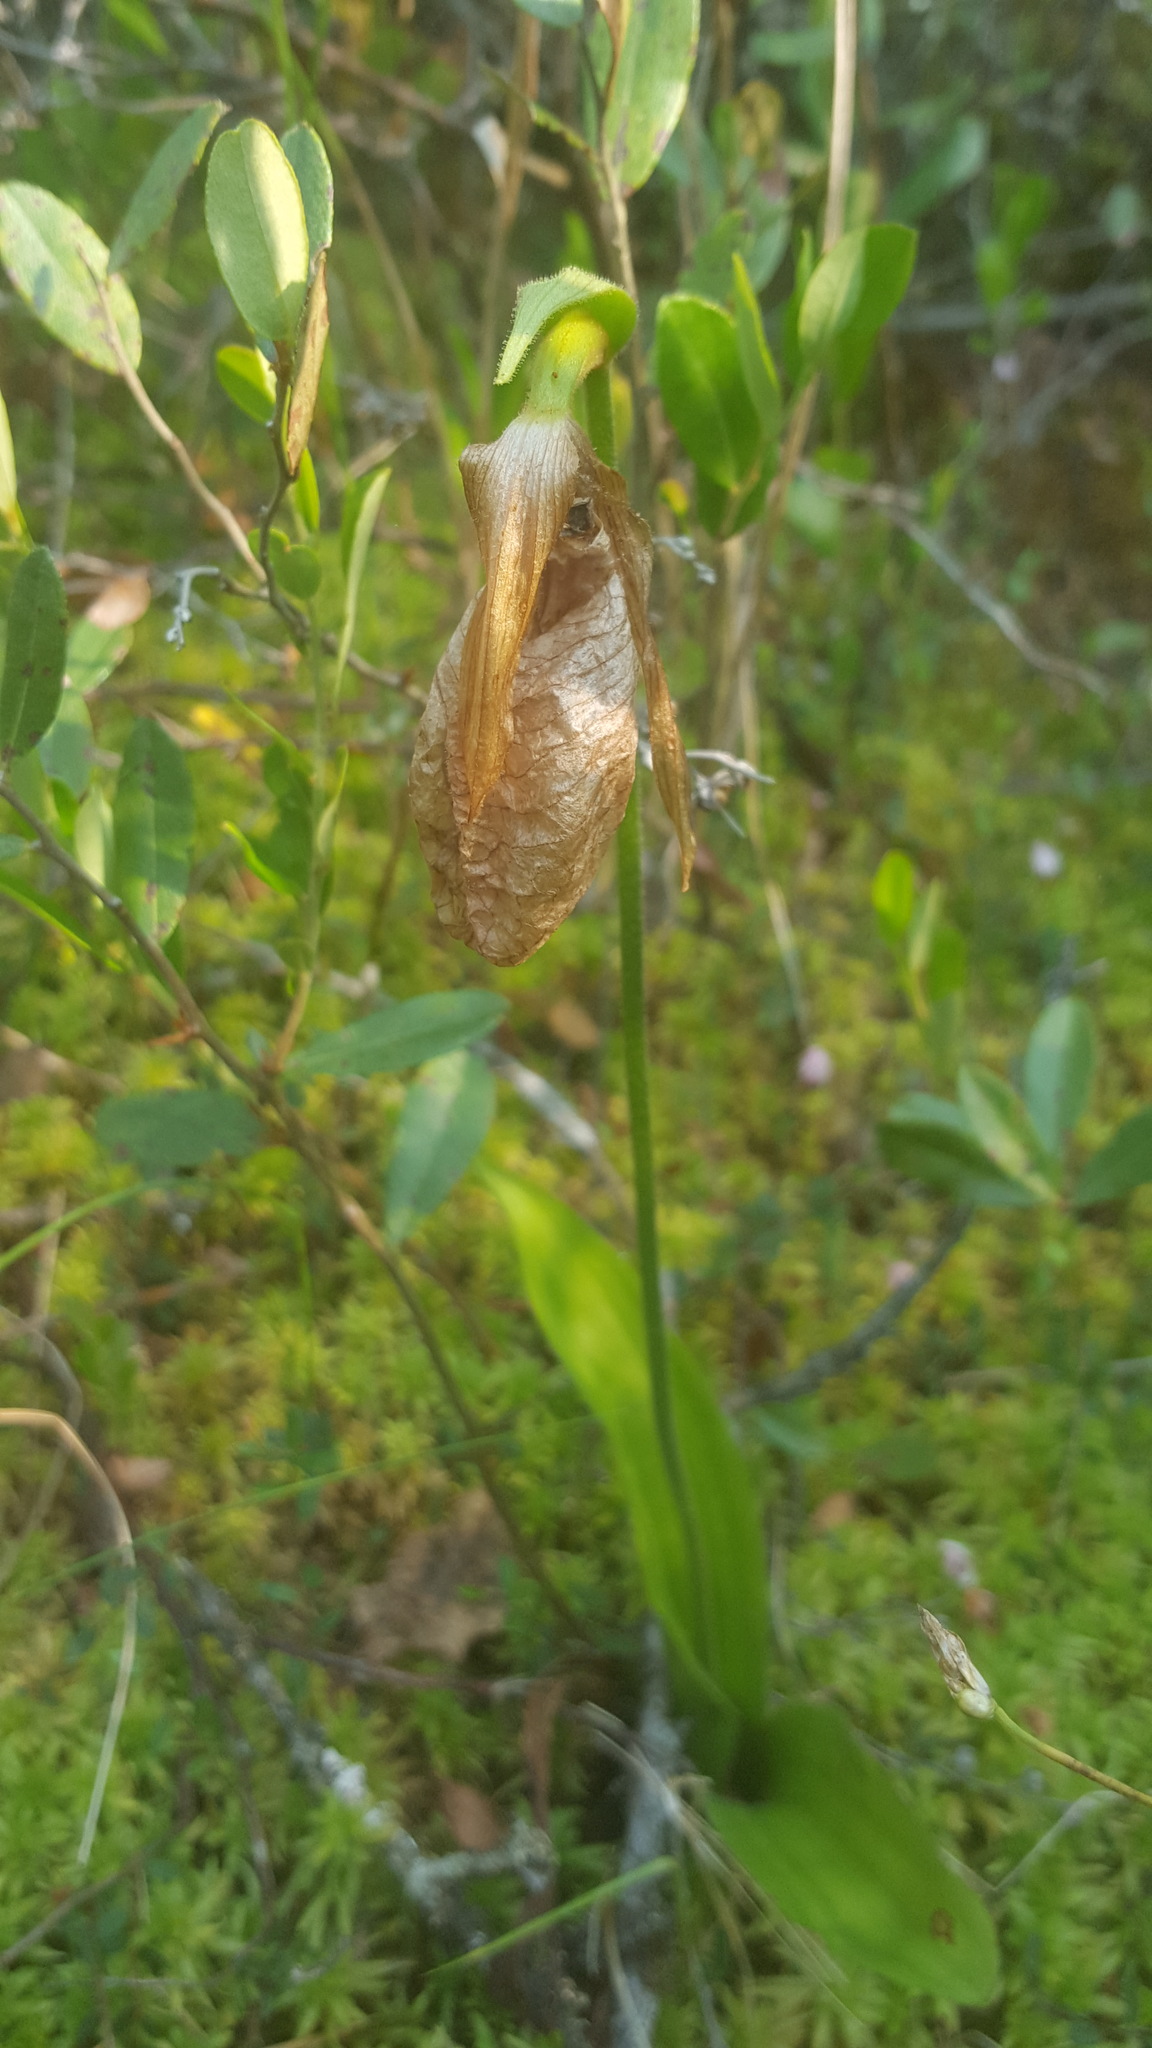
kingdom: Plantae
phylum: Tracheophyta
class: Liliopsida
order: Asparagales
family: Orchidaceae
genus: Cypripedium
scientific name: Cypripedium acaule
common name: Pink lady's-slipper
